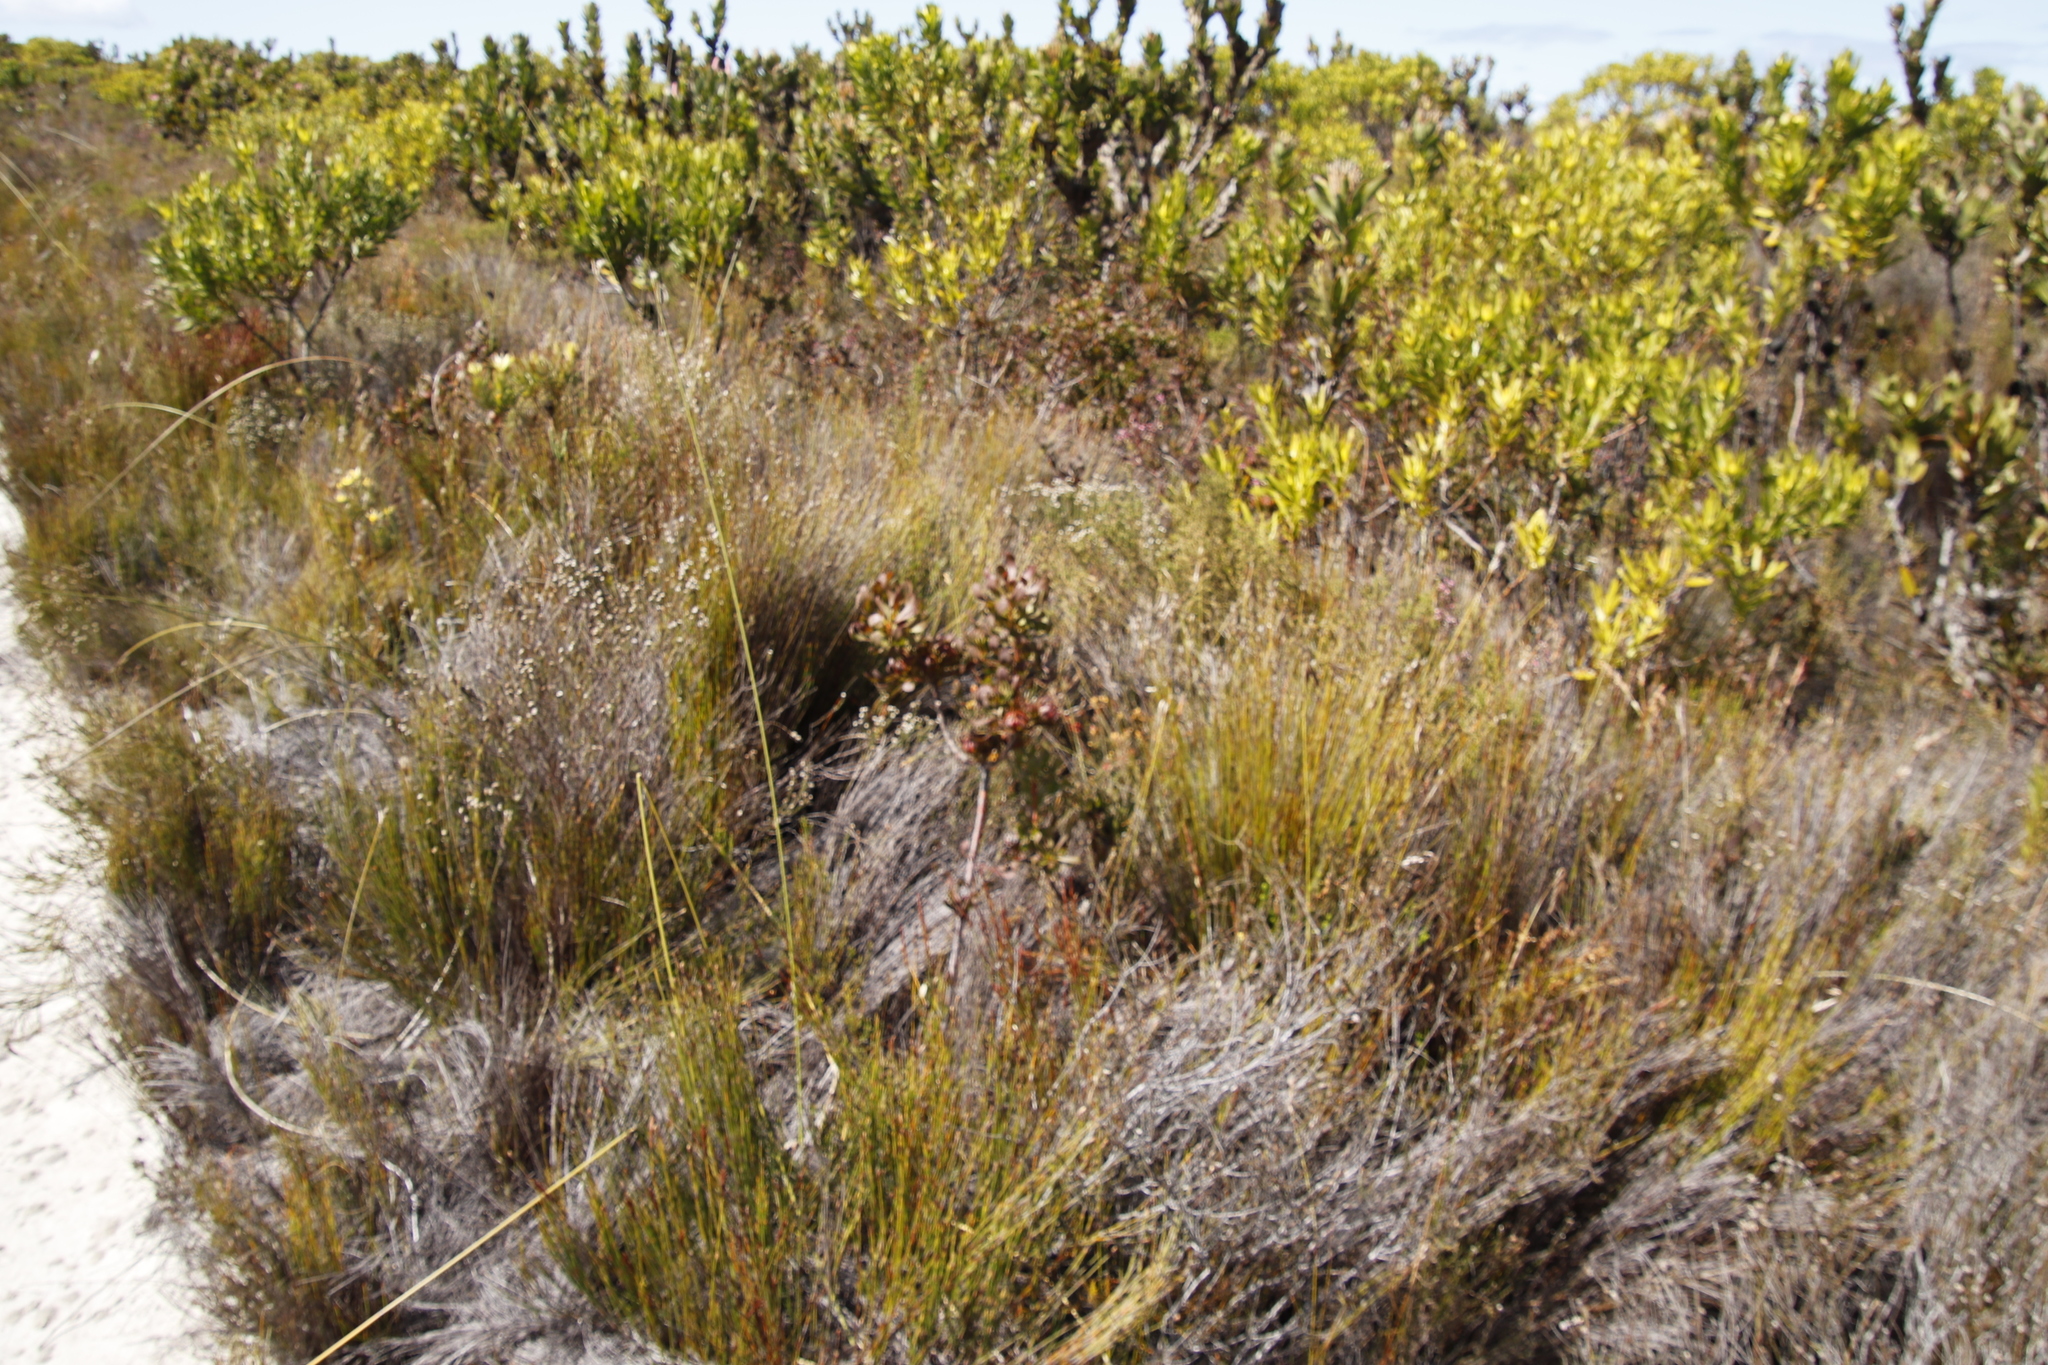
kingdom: Plantae
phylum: Tracheophyta
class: Magnoliopsida
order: Proteales
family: Proteaceae
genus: Aulax
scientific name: Aulax umbellata
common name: Broad-leaf featherbush
